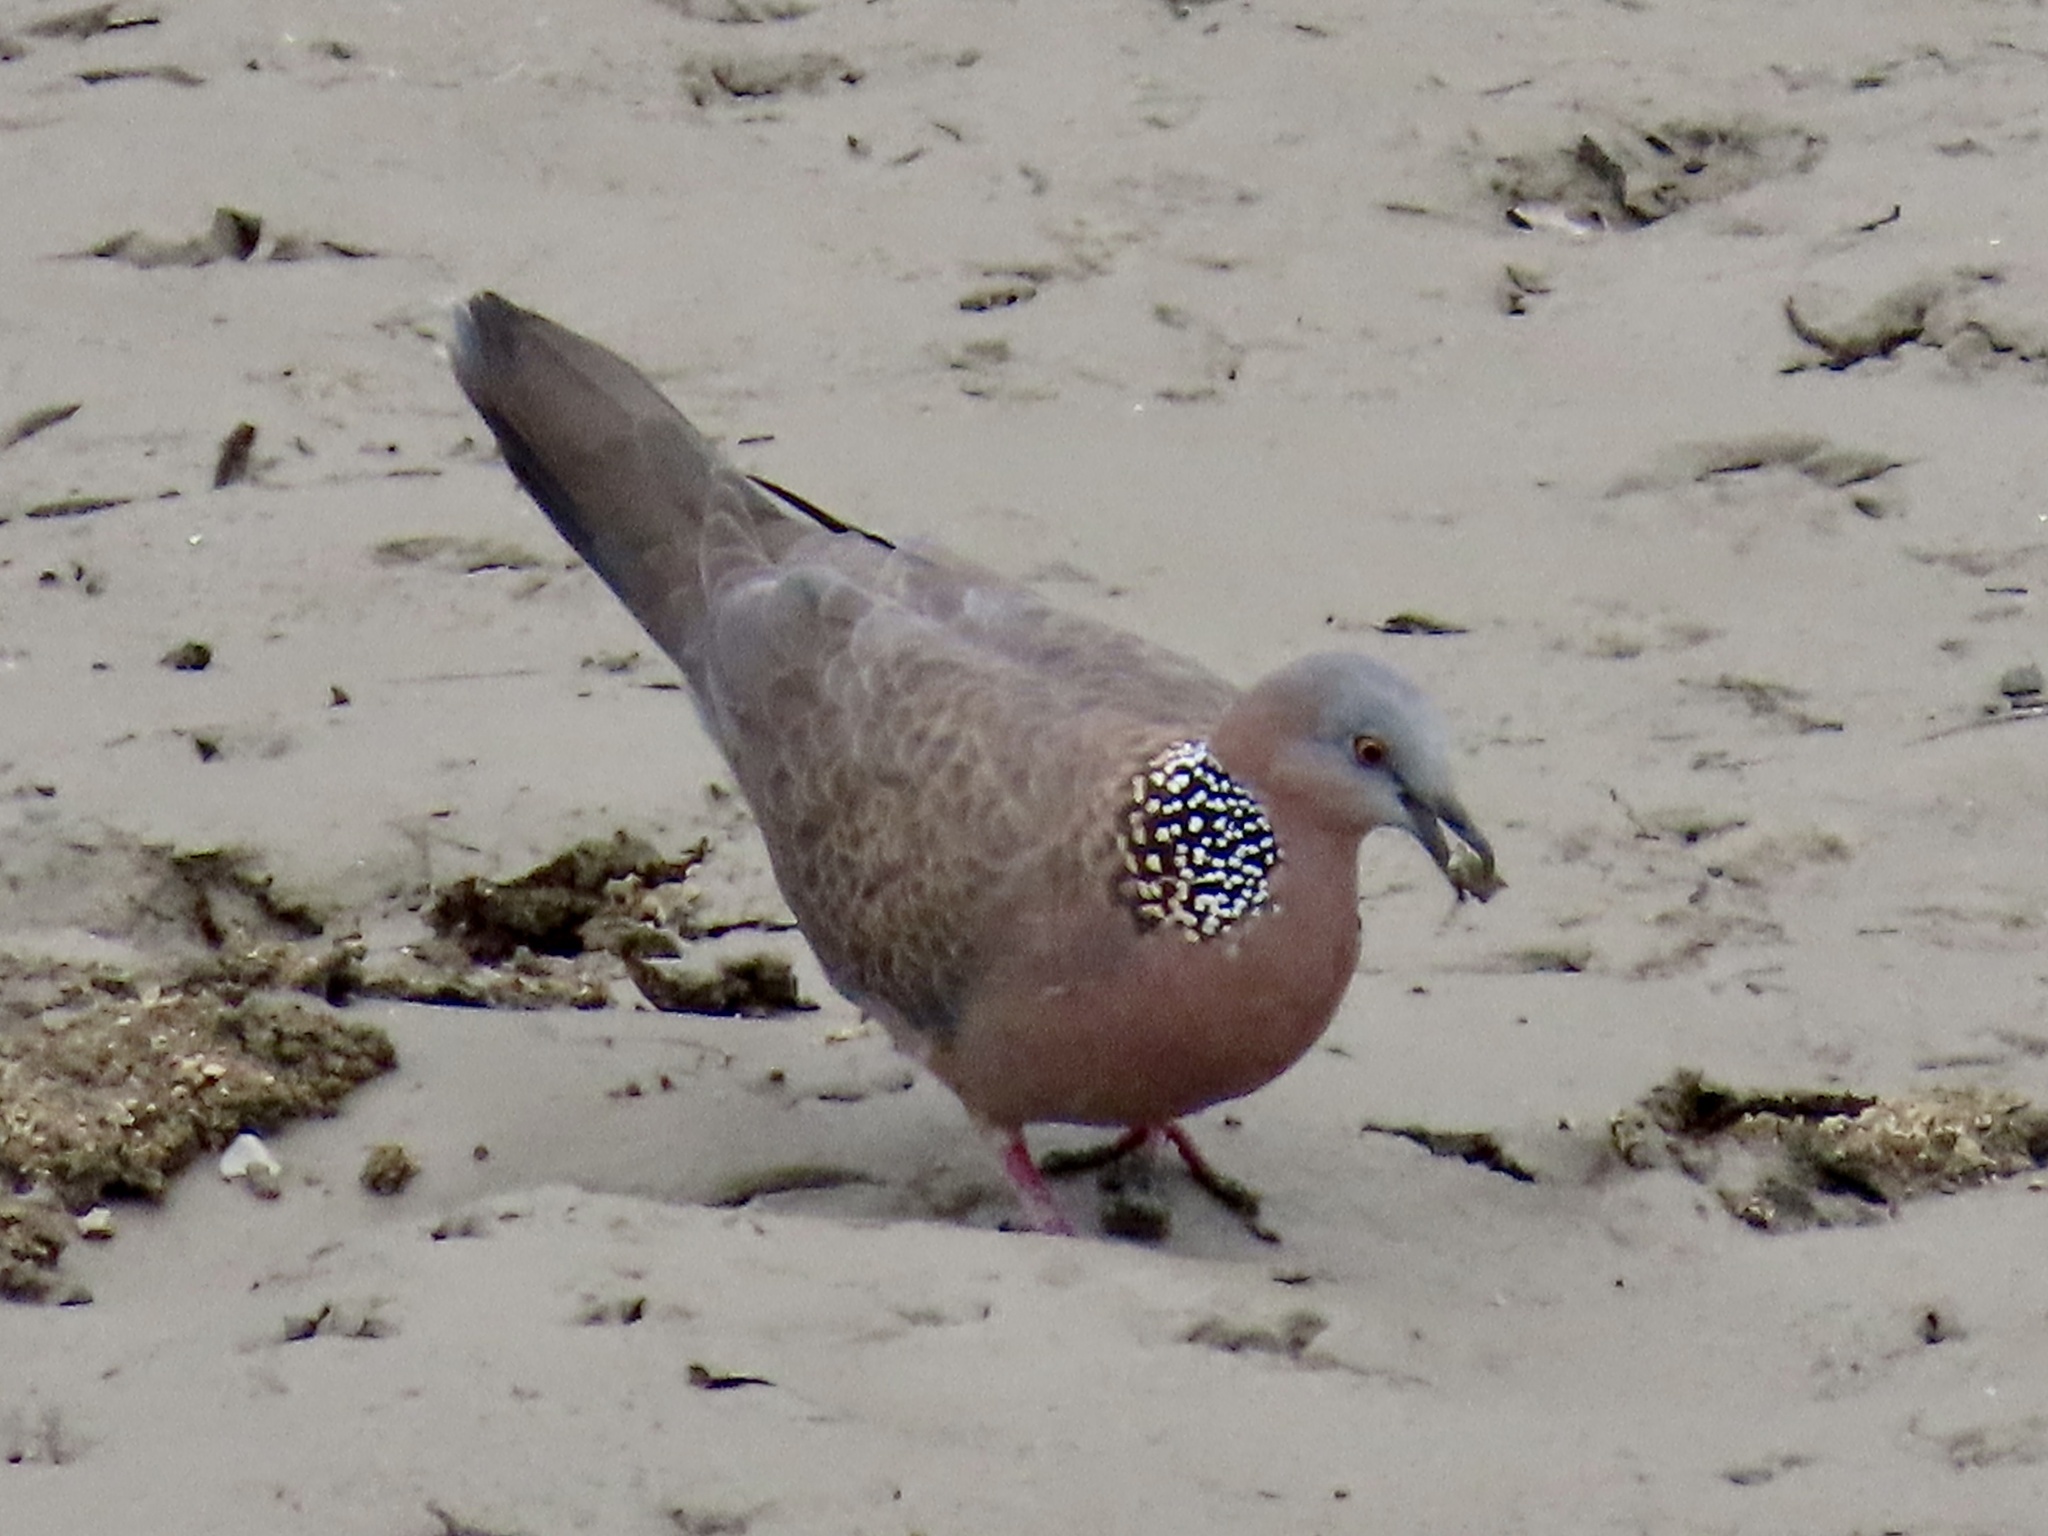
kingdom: Animalia
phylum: Chordata
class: Aves
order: Columbiformes
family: Columbidae
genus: Spilopelia
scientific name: Spilopelia chinensis
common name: Spotted dove
